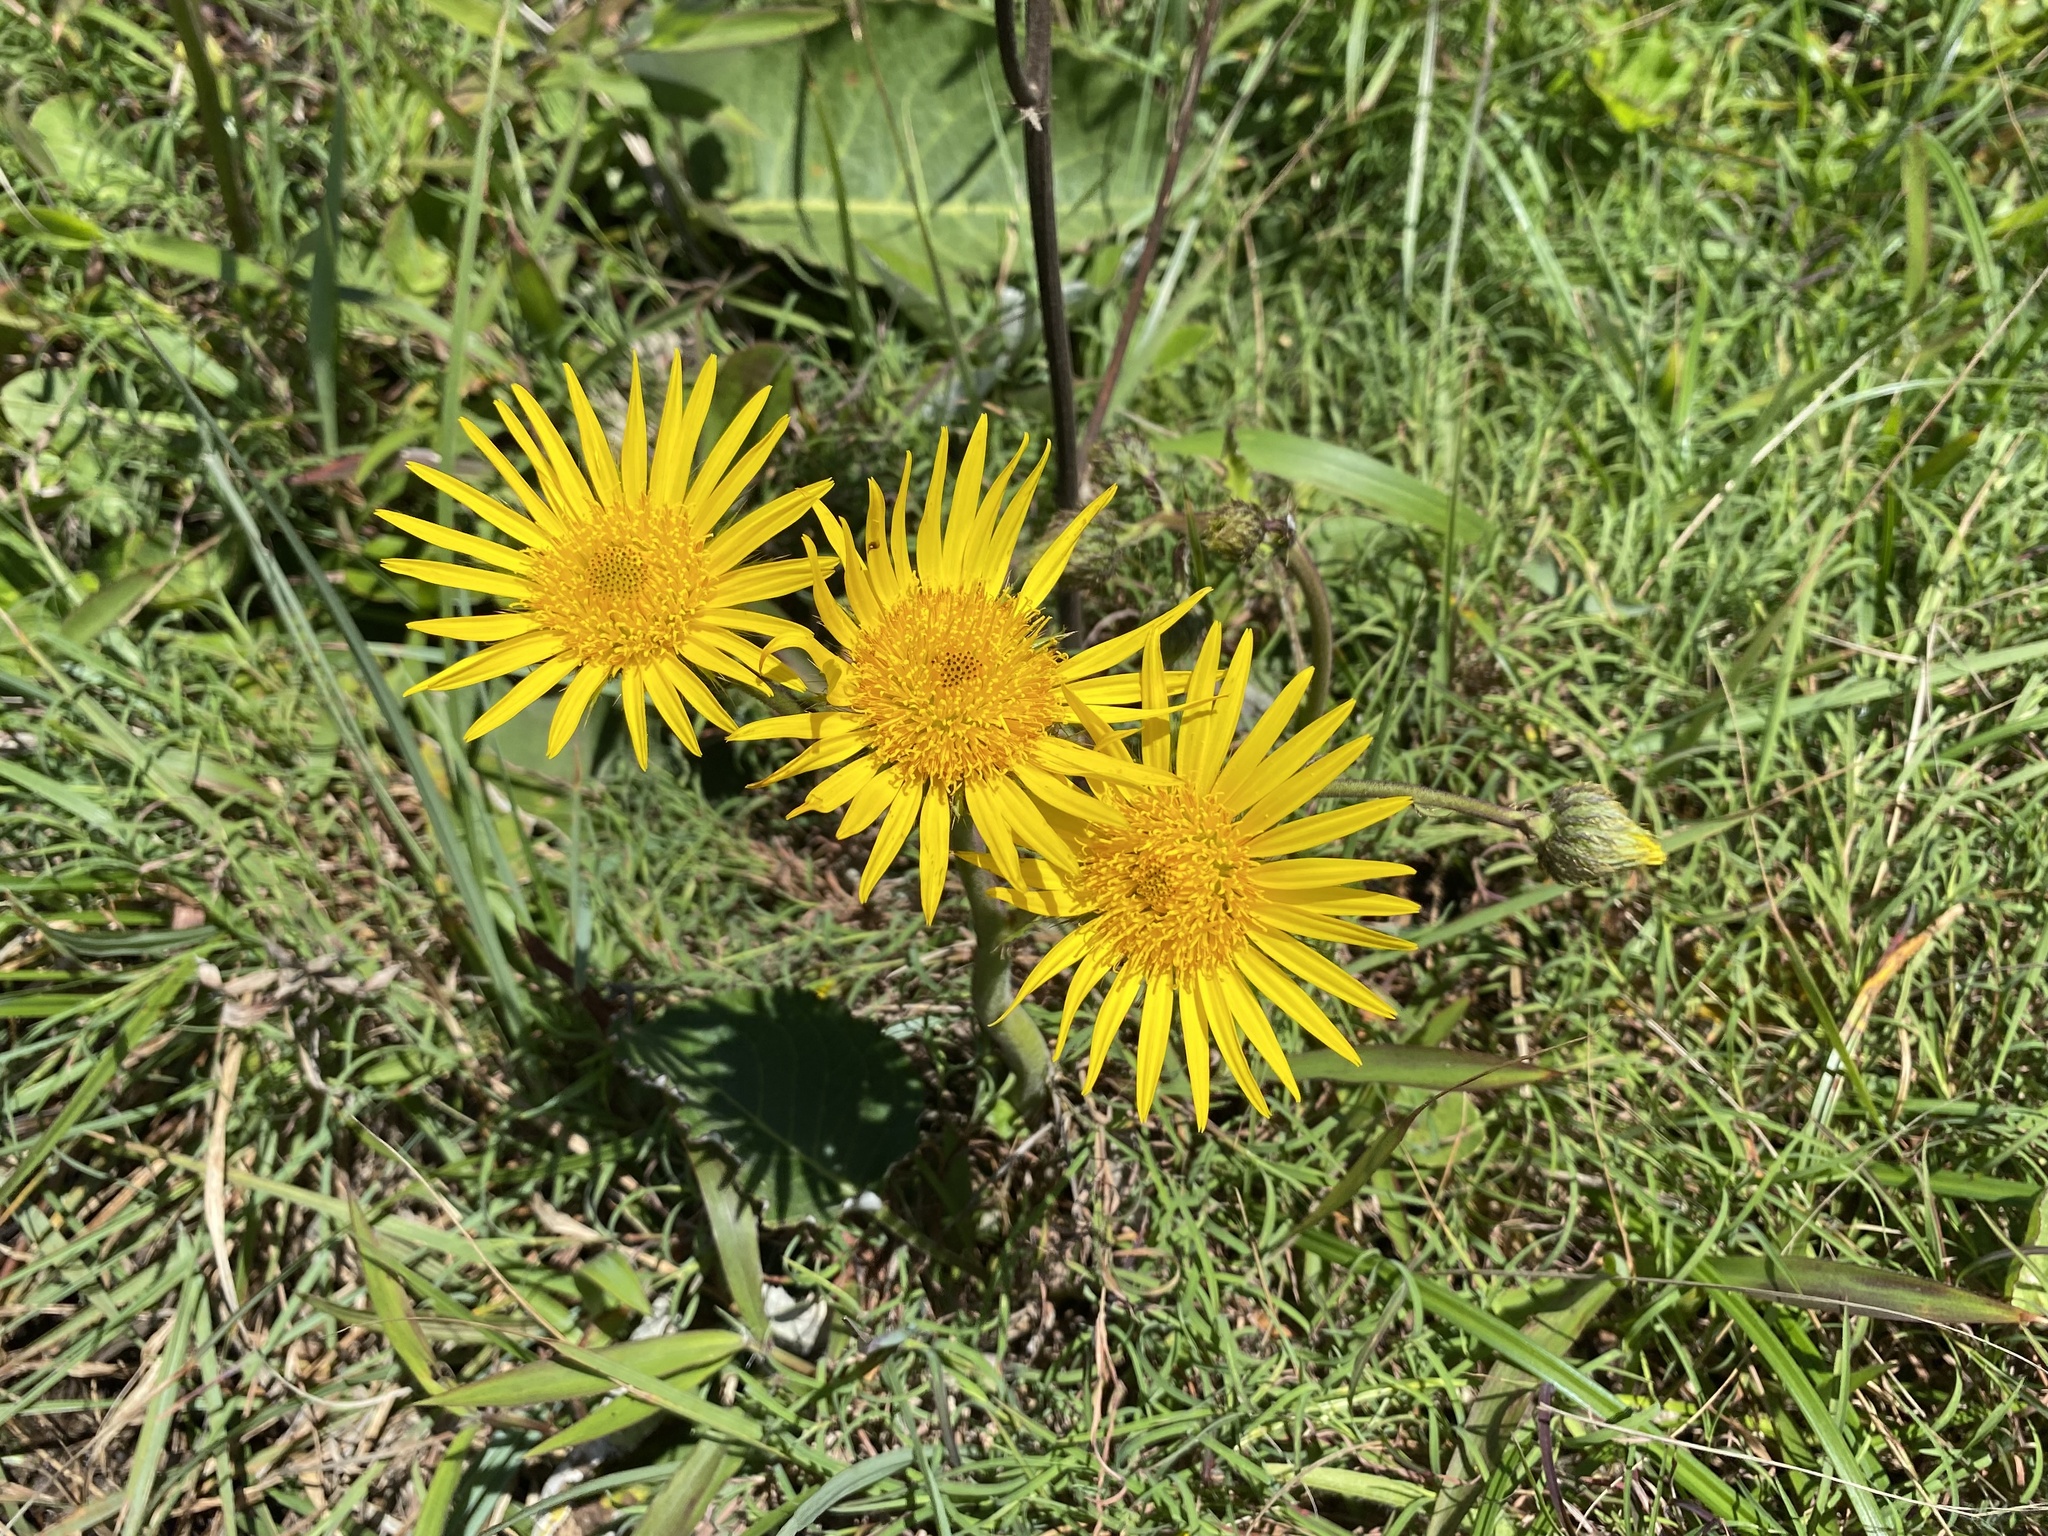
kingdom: Plantae
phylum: Tracheophyta
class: Magnoliopsida
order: Asterales
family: Asteraceae
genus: Berkheya
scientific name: Berkheya speciosa
